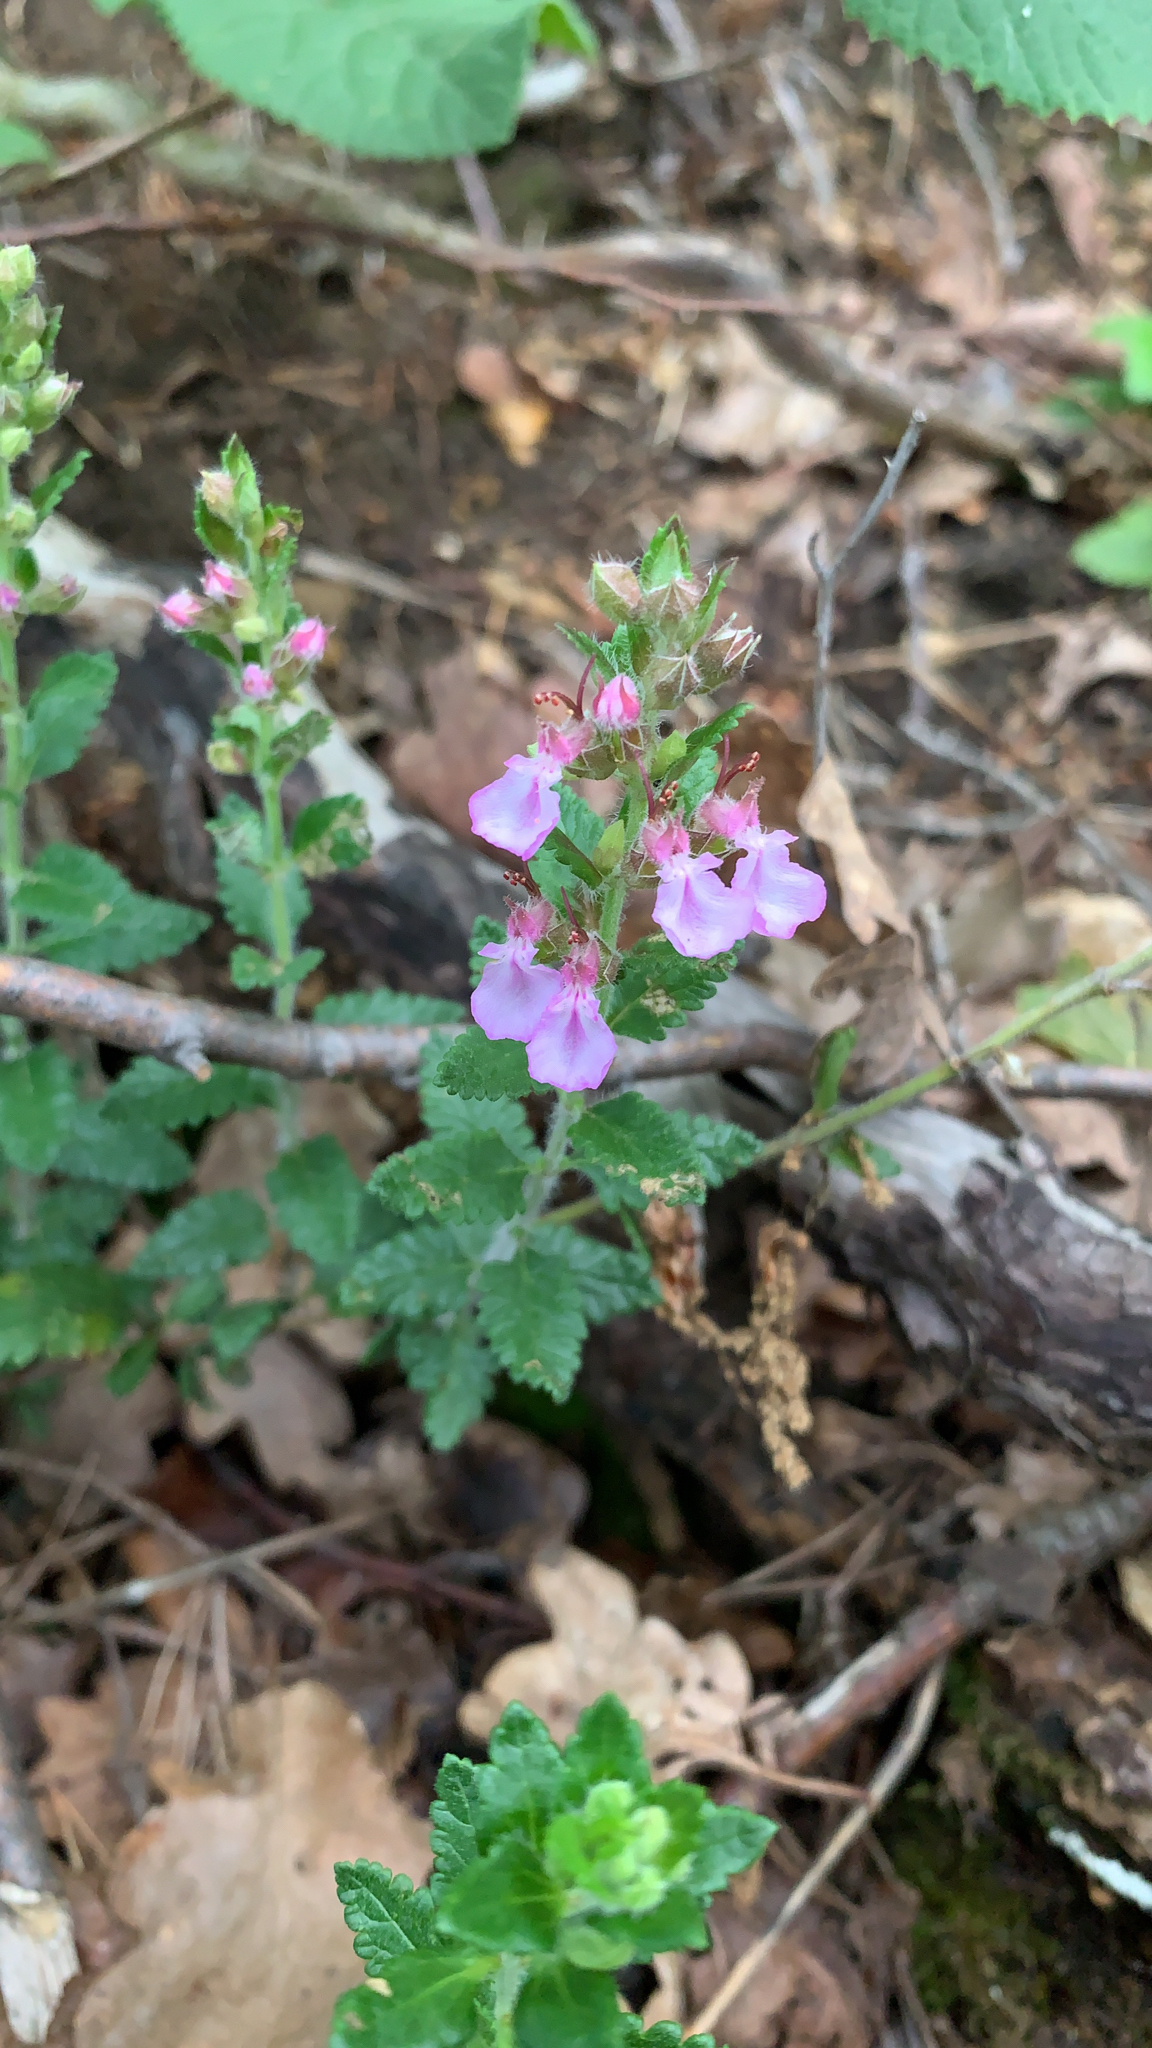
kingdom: Plantae
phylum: Tracheophyta
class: Magnoliopsida
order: Lamiales
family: Lamiaceae
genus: Teucrium
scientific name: Teucrium chamaedrys
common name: Wall germander
